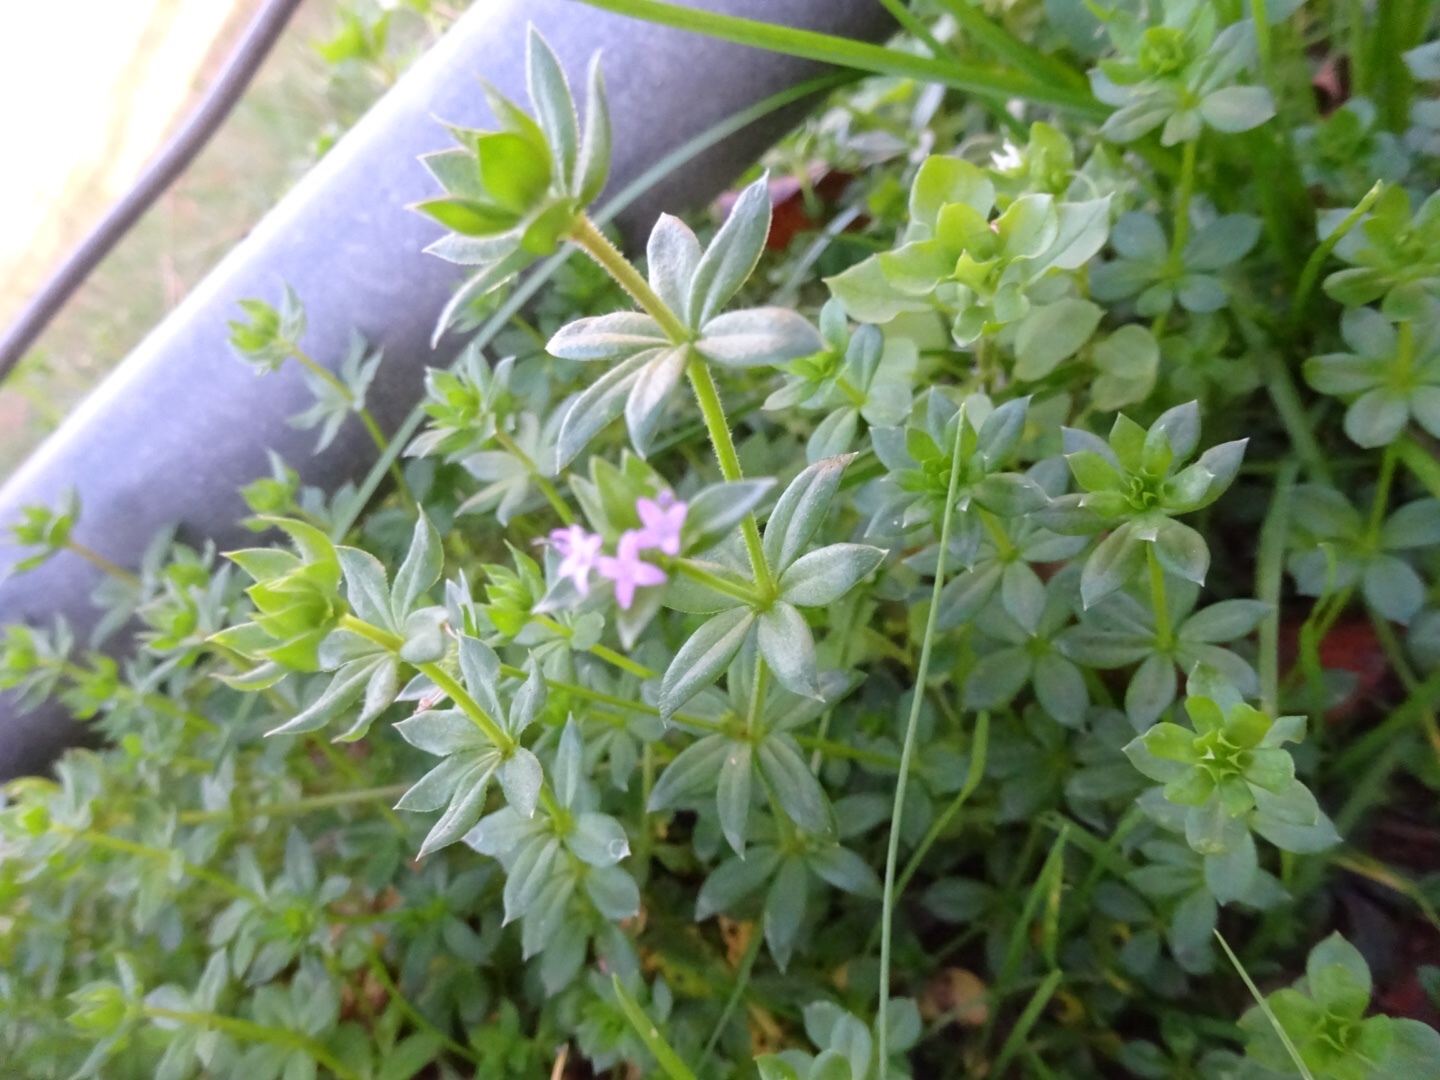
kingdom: Plantae
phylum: Tracheophyta
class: Magnoliopsida
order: Gentianales
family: Rubiaceae
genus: Sherardia
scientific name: Sherardia arvensis
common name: Field madder
